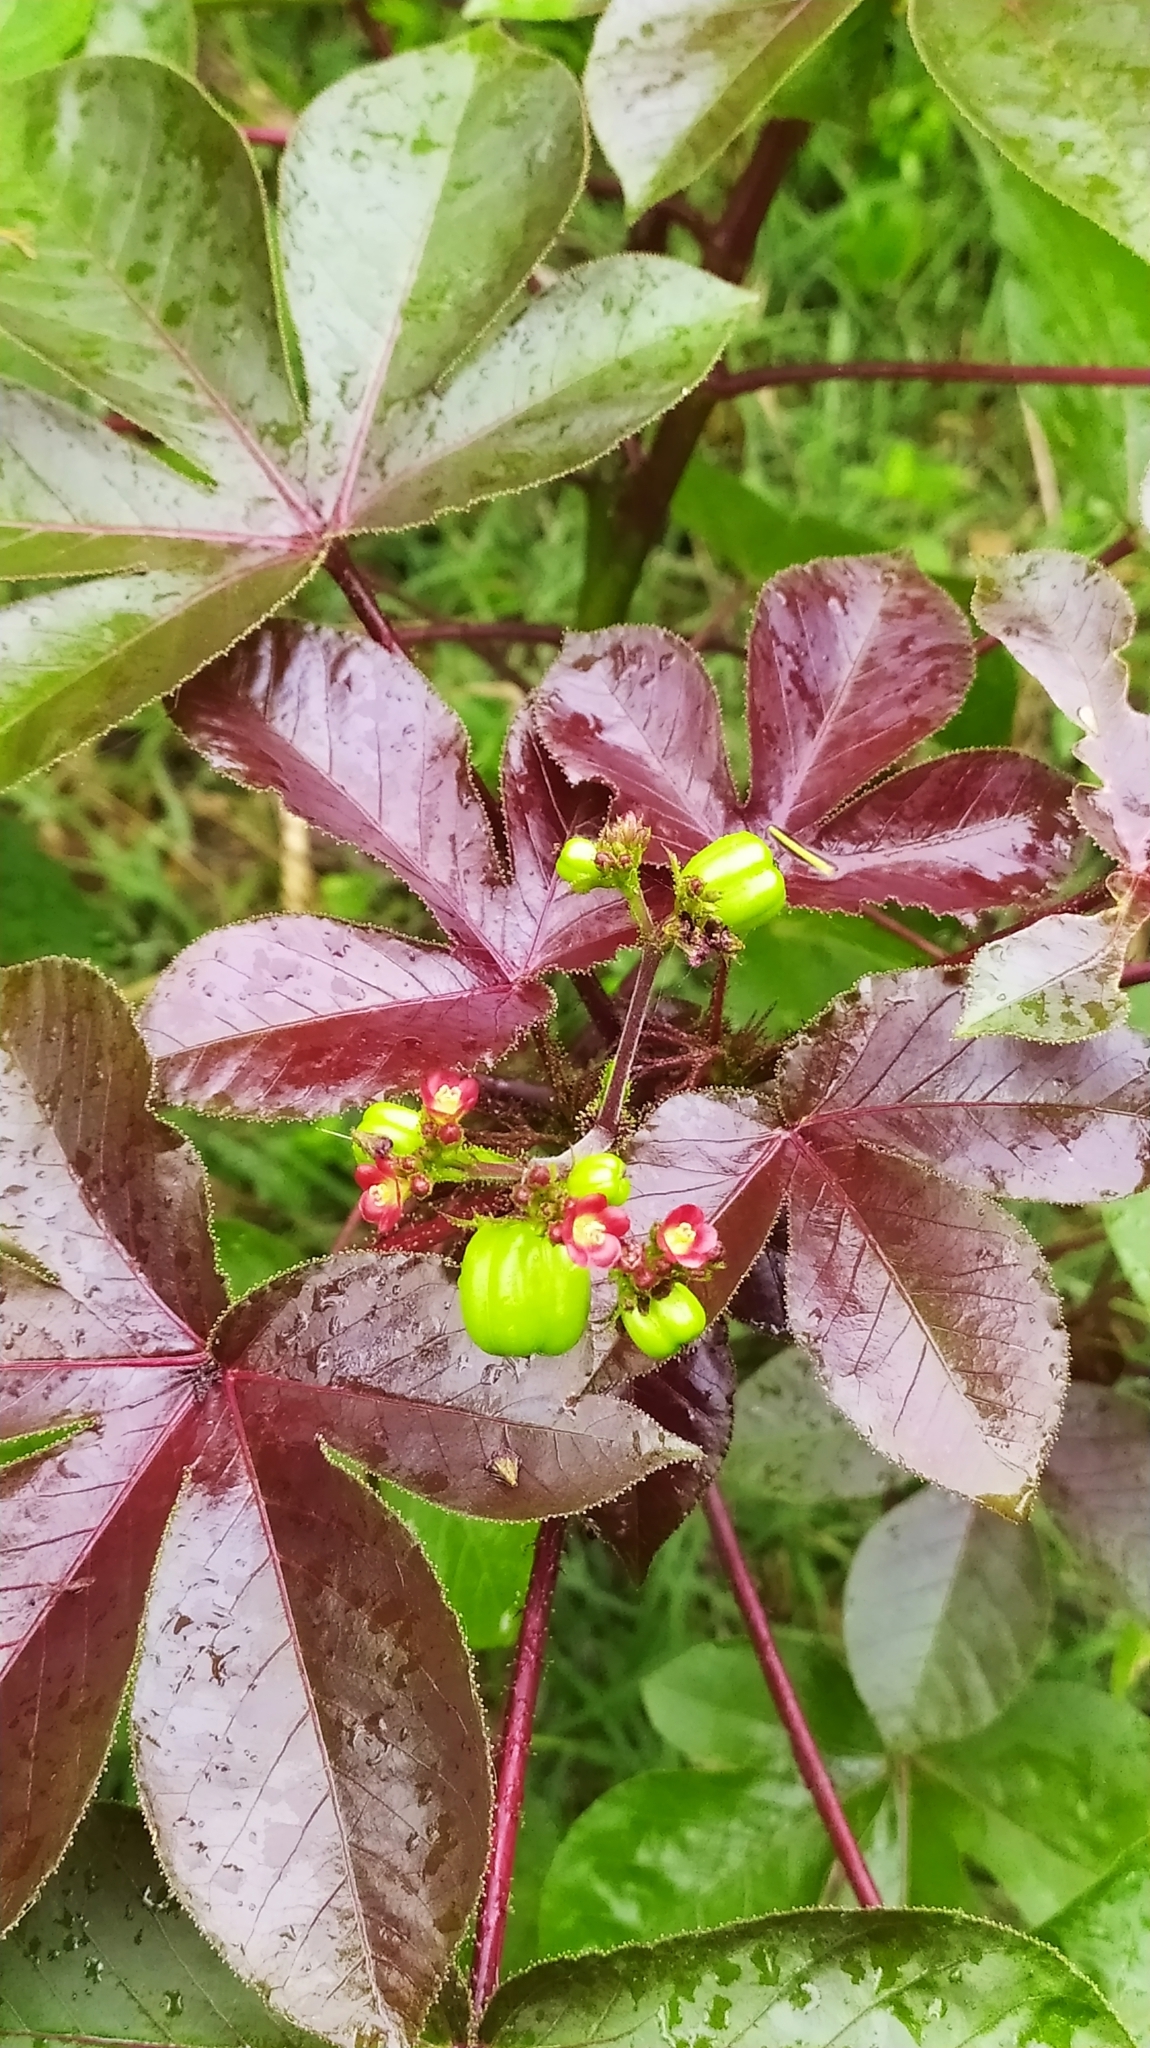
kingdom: Plantae
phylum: Tracheophyta
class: Magnoliopsida
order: Malpighiales
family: Euphorbiaceae
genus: Jatropha
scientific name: Jatropha gossypiifolia
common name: Bellyache bush
